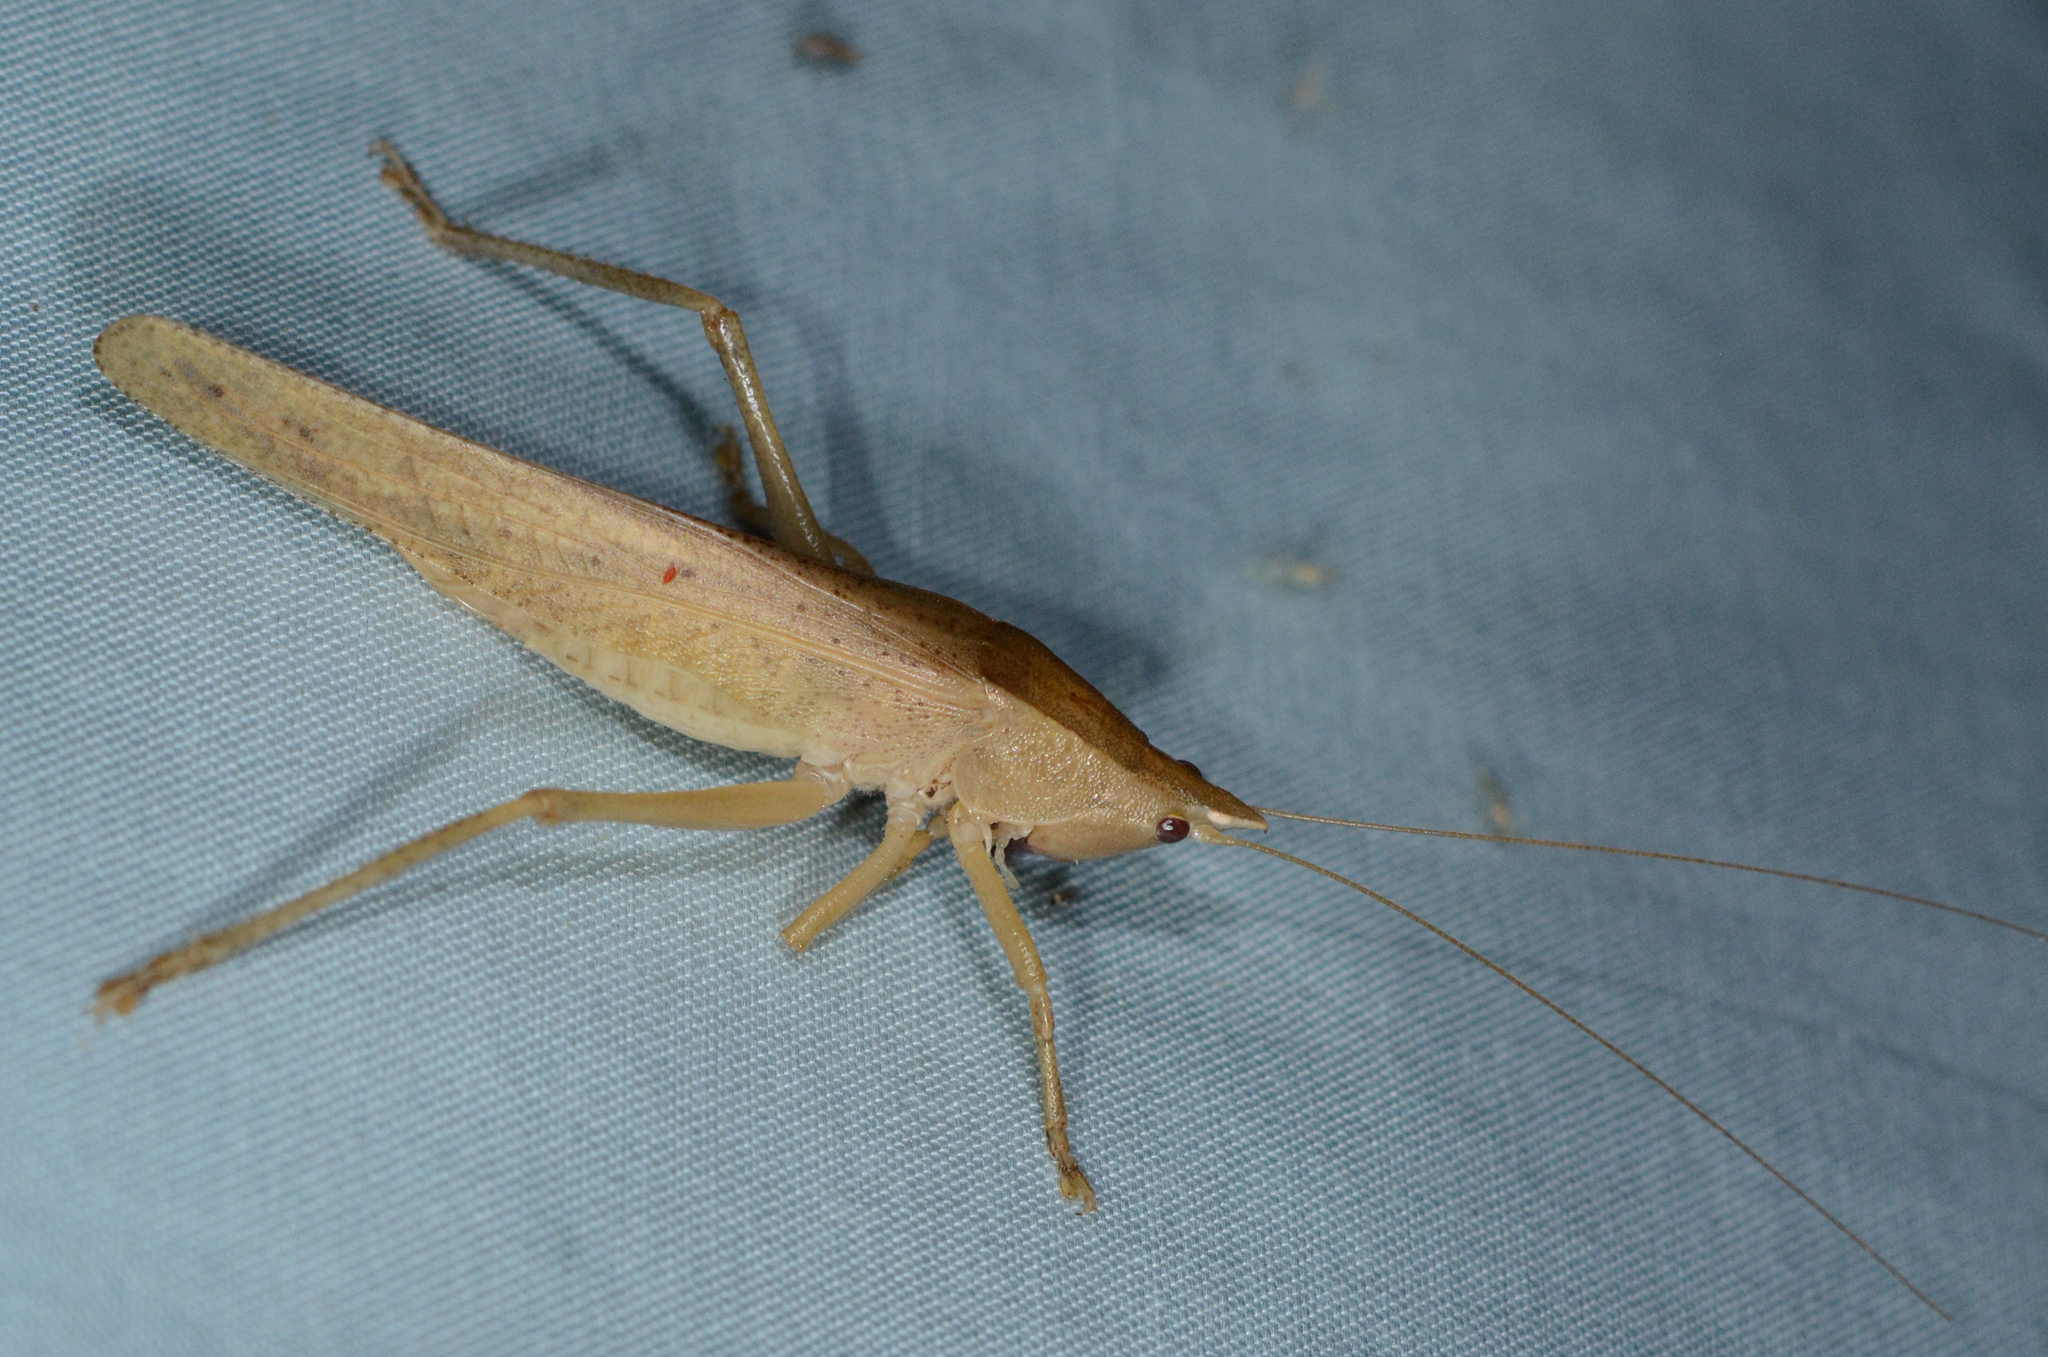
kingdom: Animalia
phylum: Arthropoda
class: Insecta
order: Orthoptera
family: Tettigoniidae
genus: Pyrgocorypha
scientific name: Pyrgocorypha uncinata
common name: Hook-faced conehead
